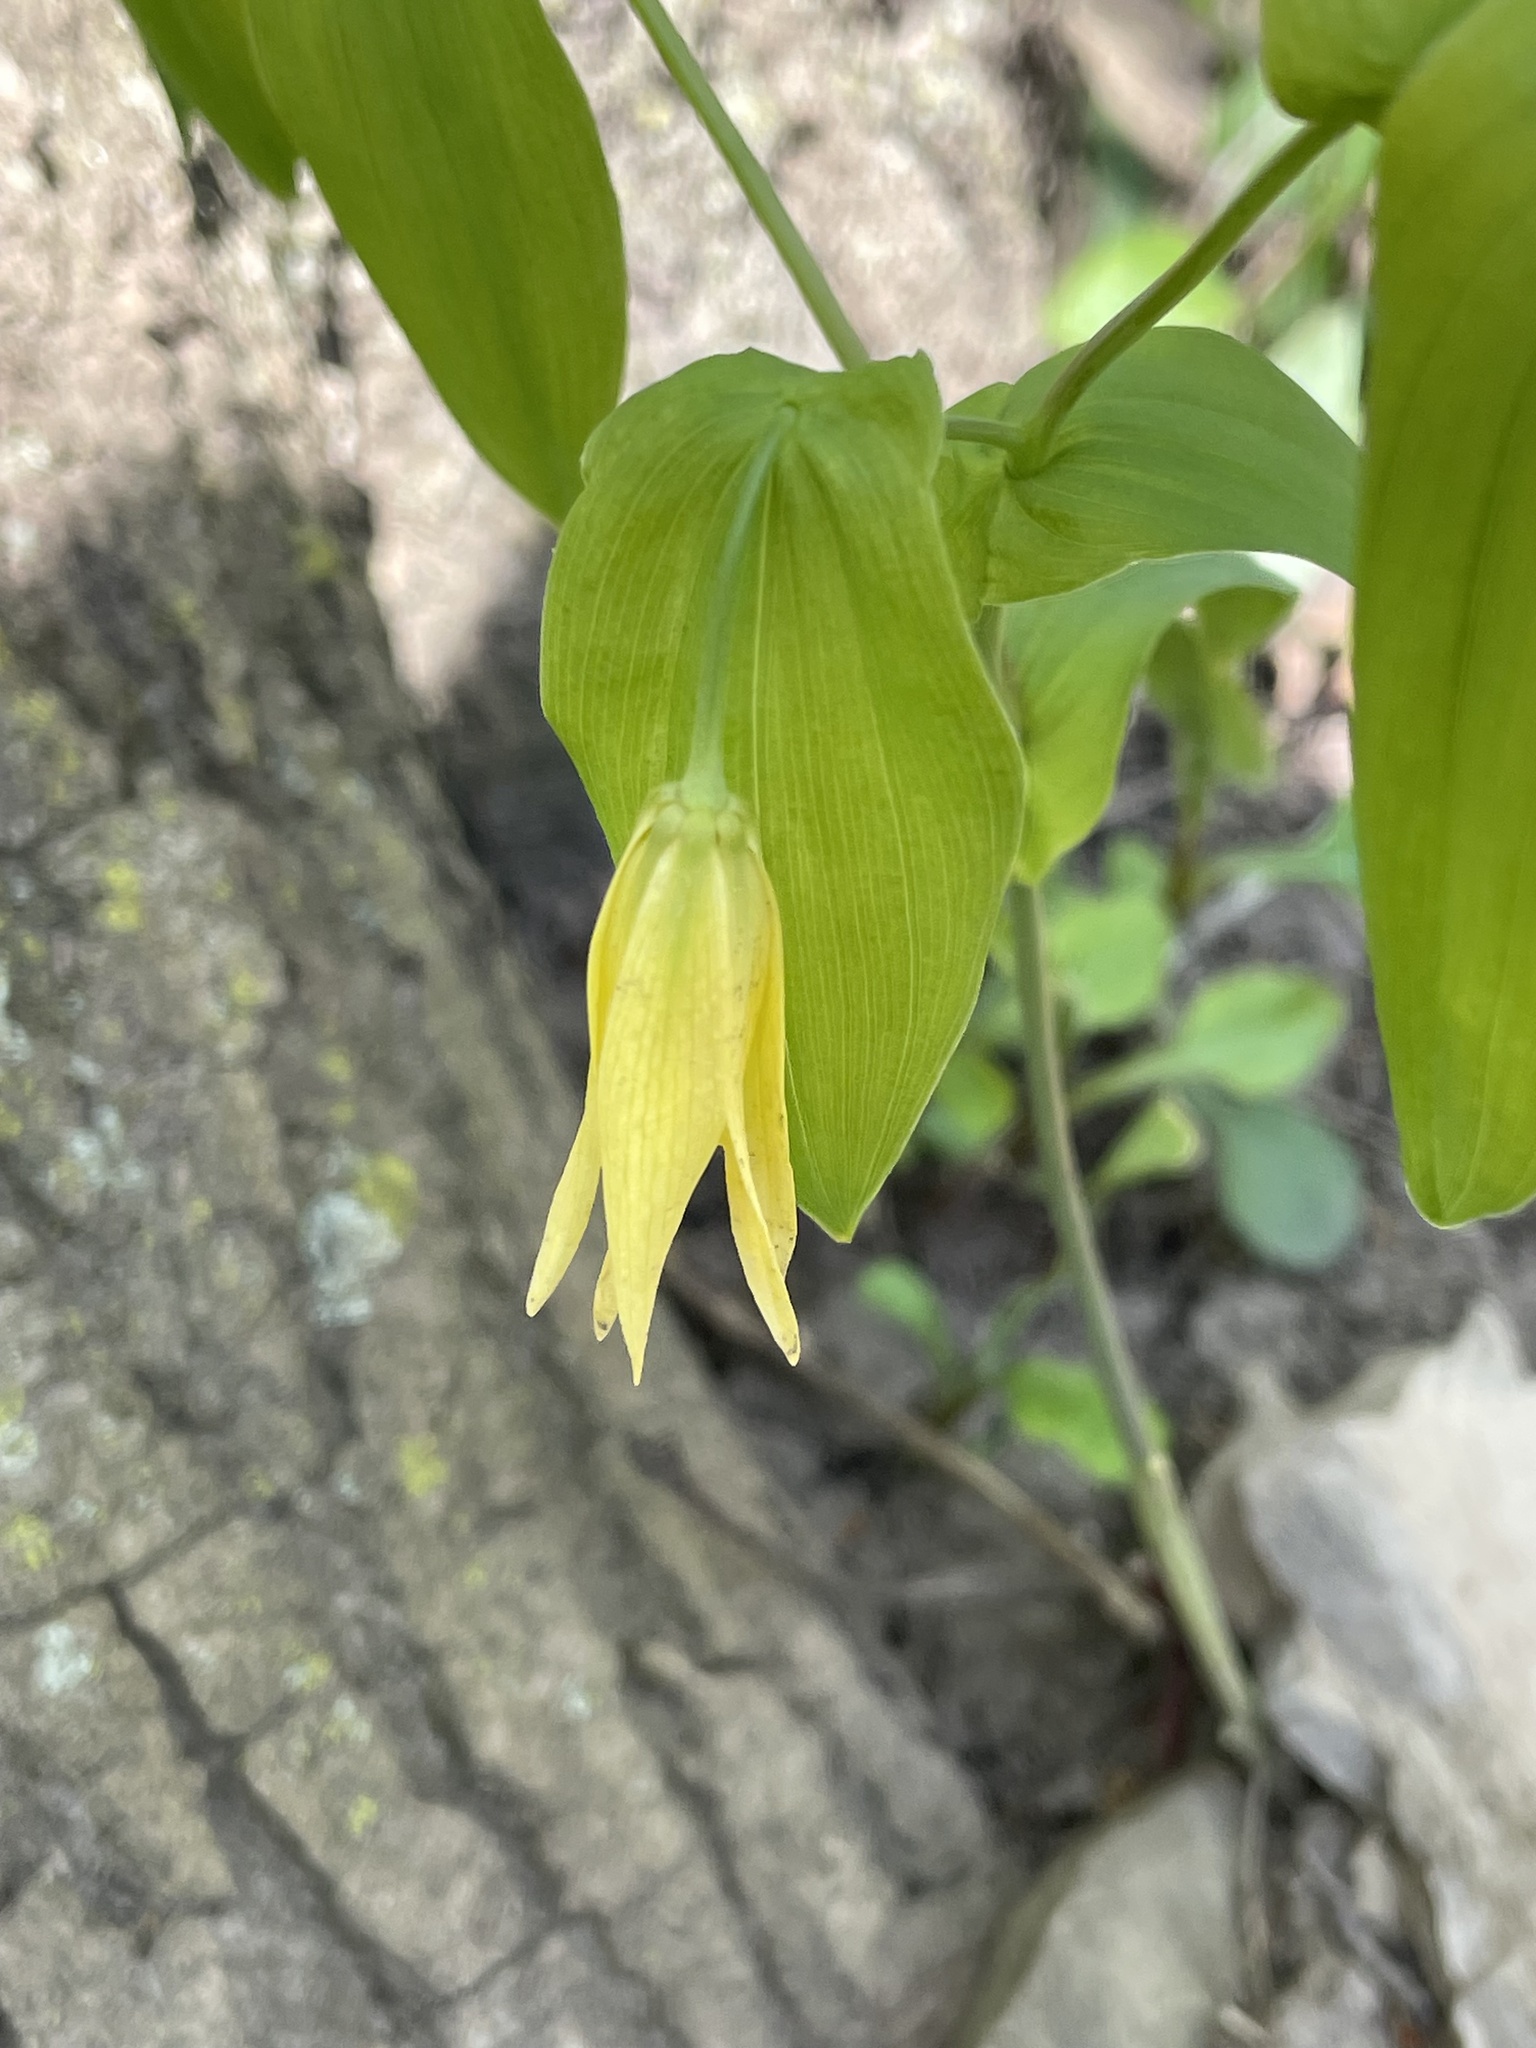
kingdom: Plantae
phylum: Tracheophyta
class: Liliopsida
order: Liliales
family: Colchicaceae
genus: Uvularia
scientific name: Uvularia grandiflora
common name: Bellwort
